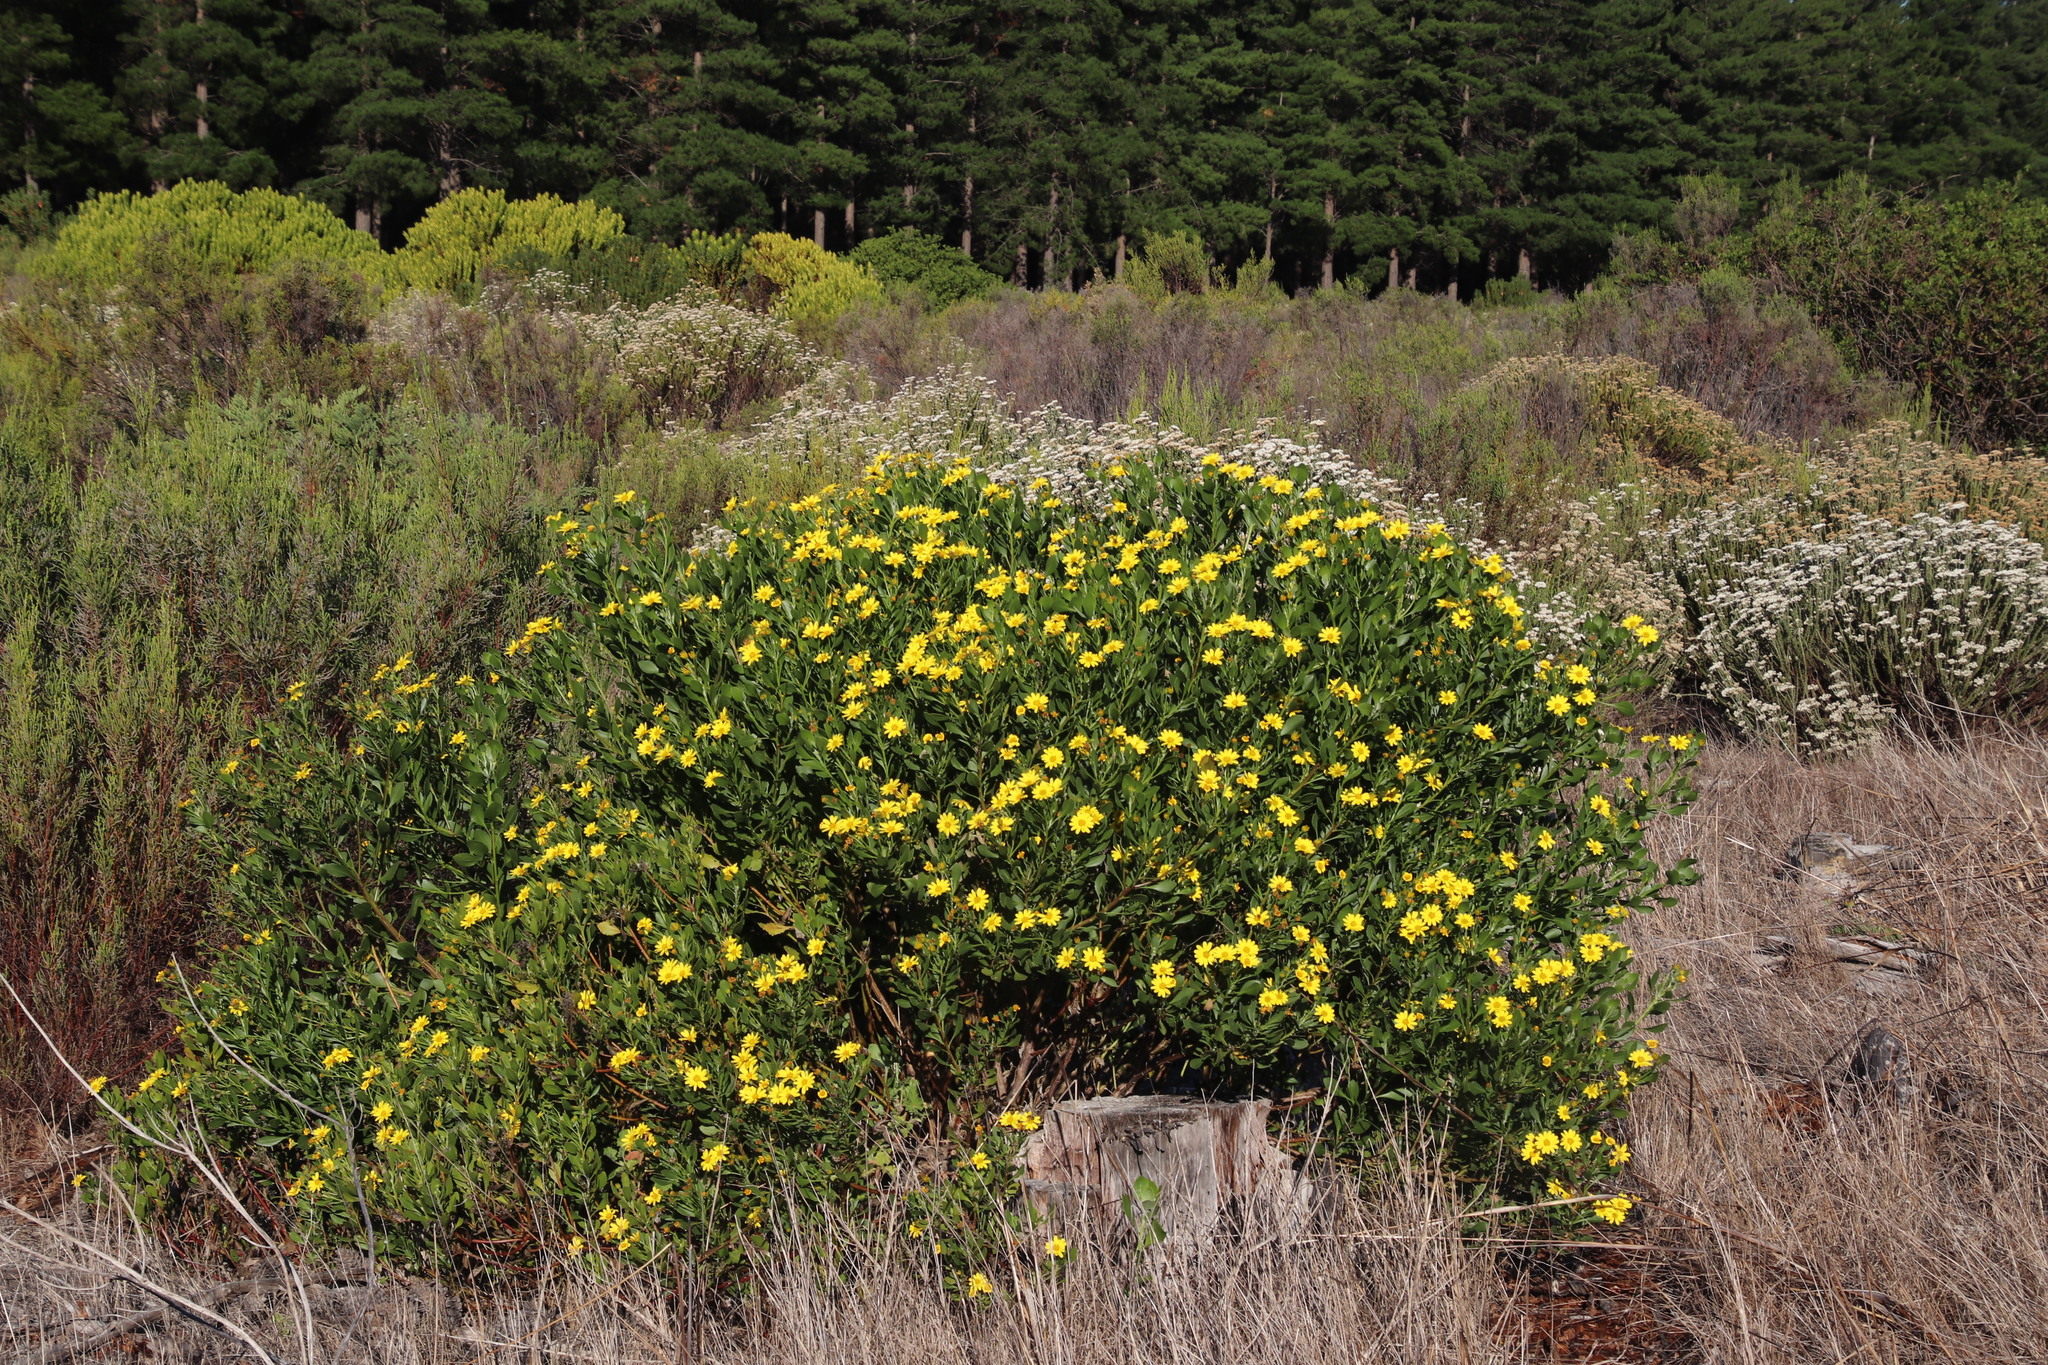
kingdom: Plantae
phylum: Tracheophyta
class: Magnoliopsida
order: Asterales
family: Asteraceae
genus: Osteospermum
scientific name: Osteospermum moniliferum
